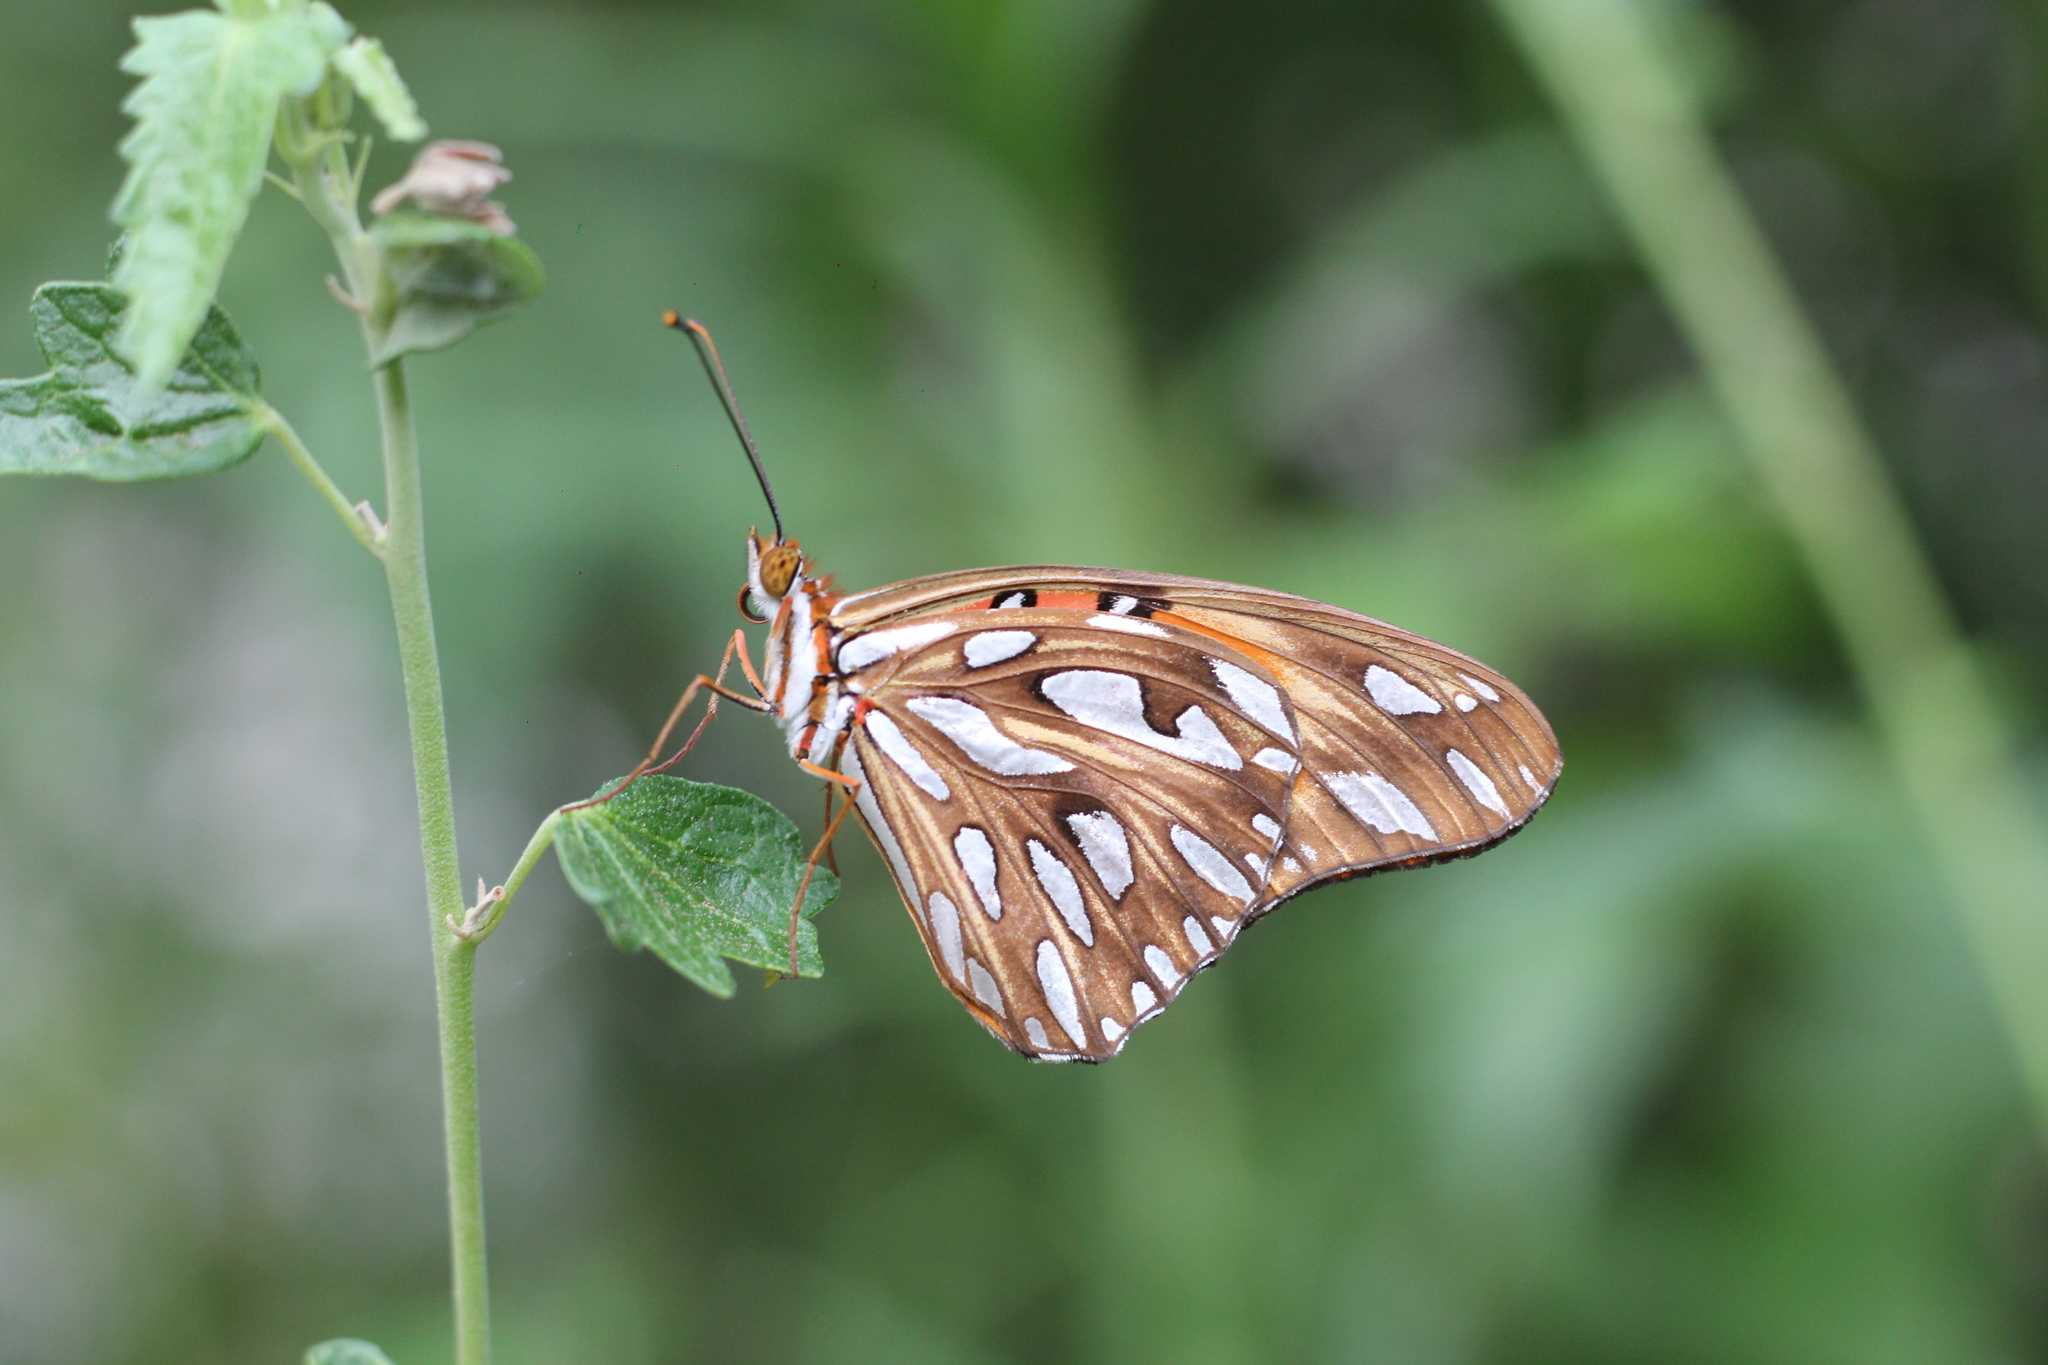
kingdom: Animalia
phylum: Arthropoda
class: Insecta
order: Lepidoptera
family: Nymphalidae
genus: Dione
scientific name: Dione vanillae
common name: Gulf fritillary
